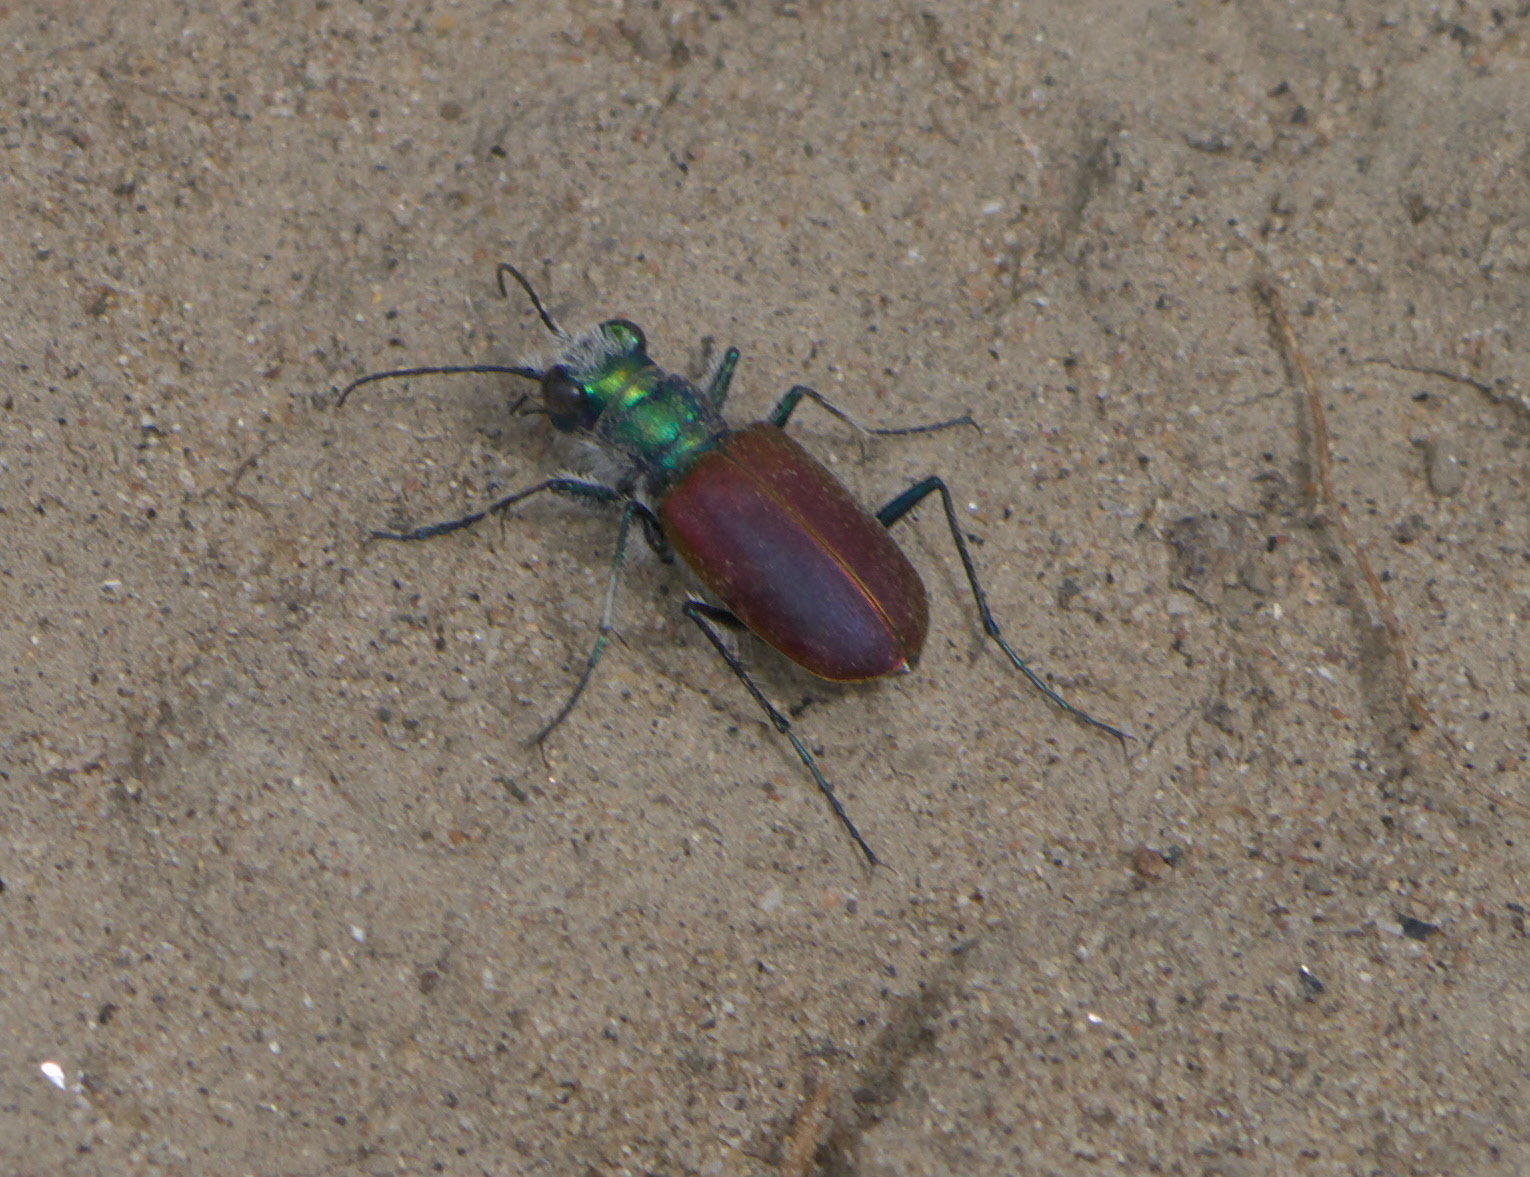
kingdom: Animalia
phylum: Arthropoda
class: Insecta
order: Coleoptera
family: Carabidae
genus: Cicindela
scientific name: Cicindela scutellaris
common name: Festive tiger beetle
